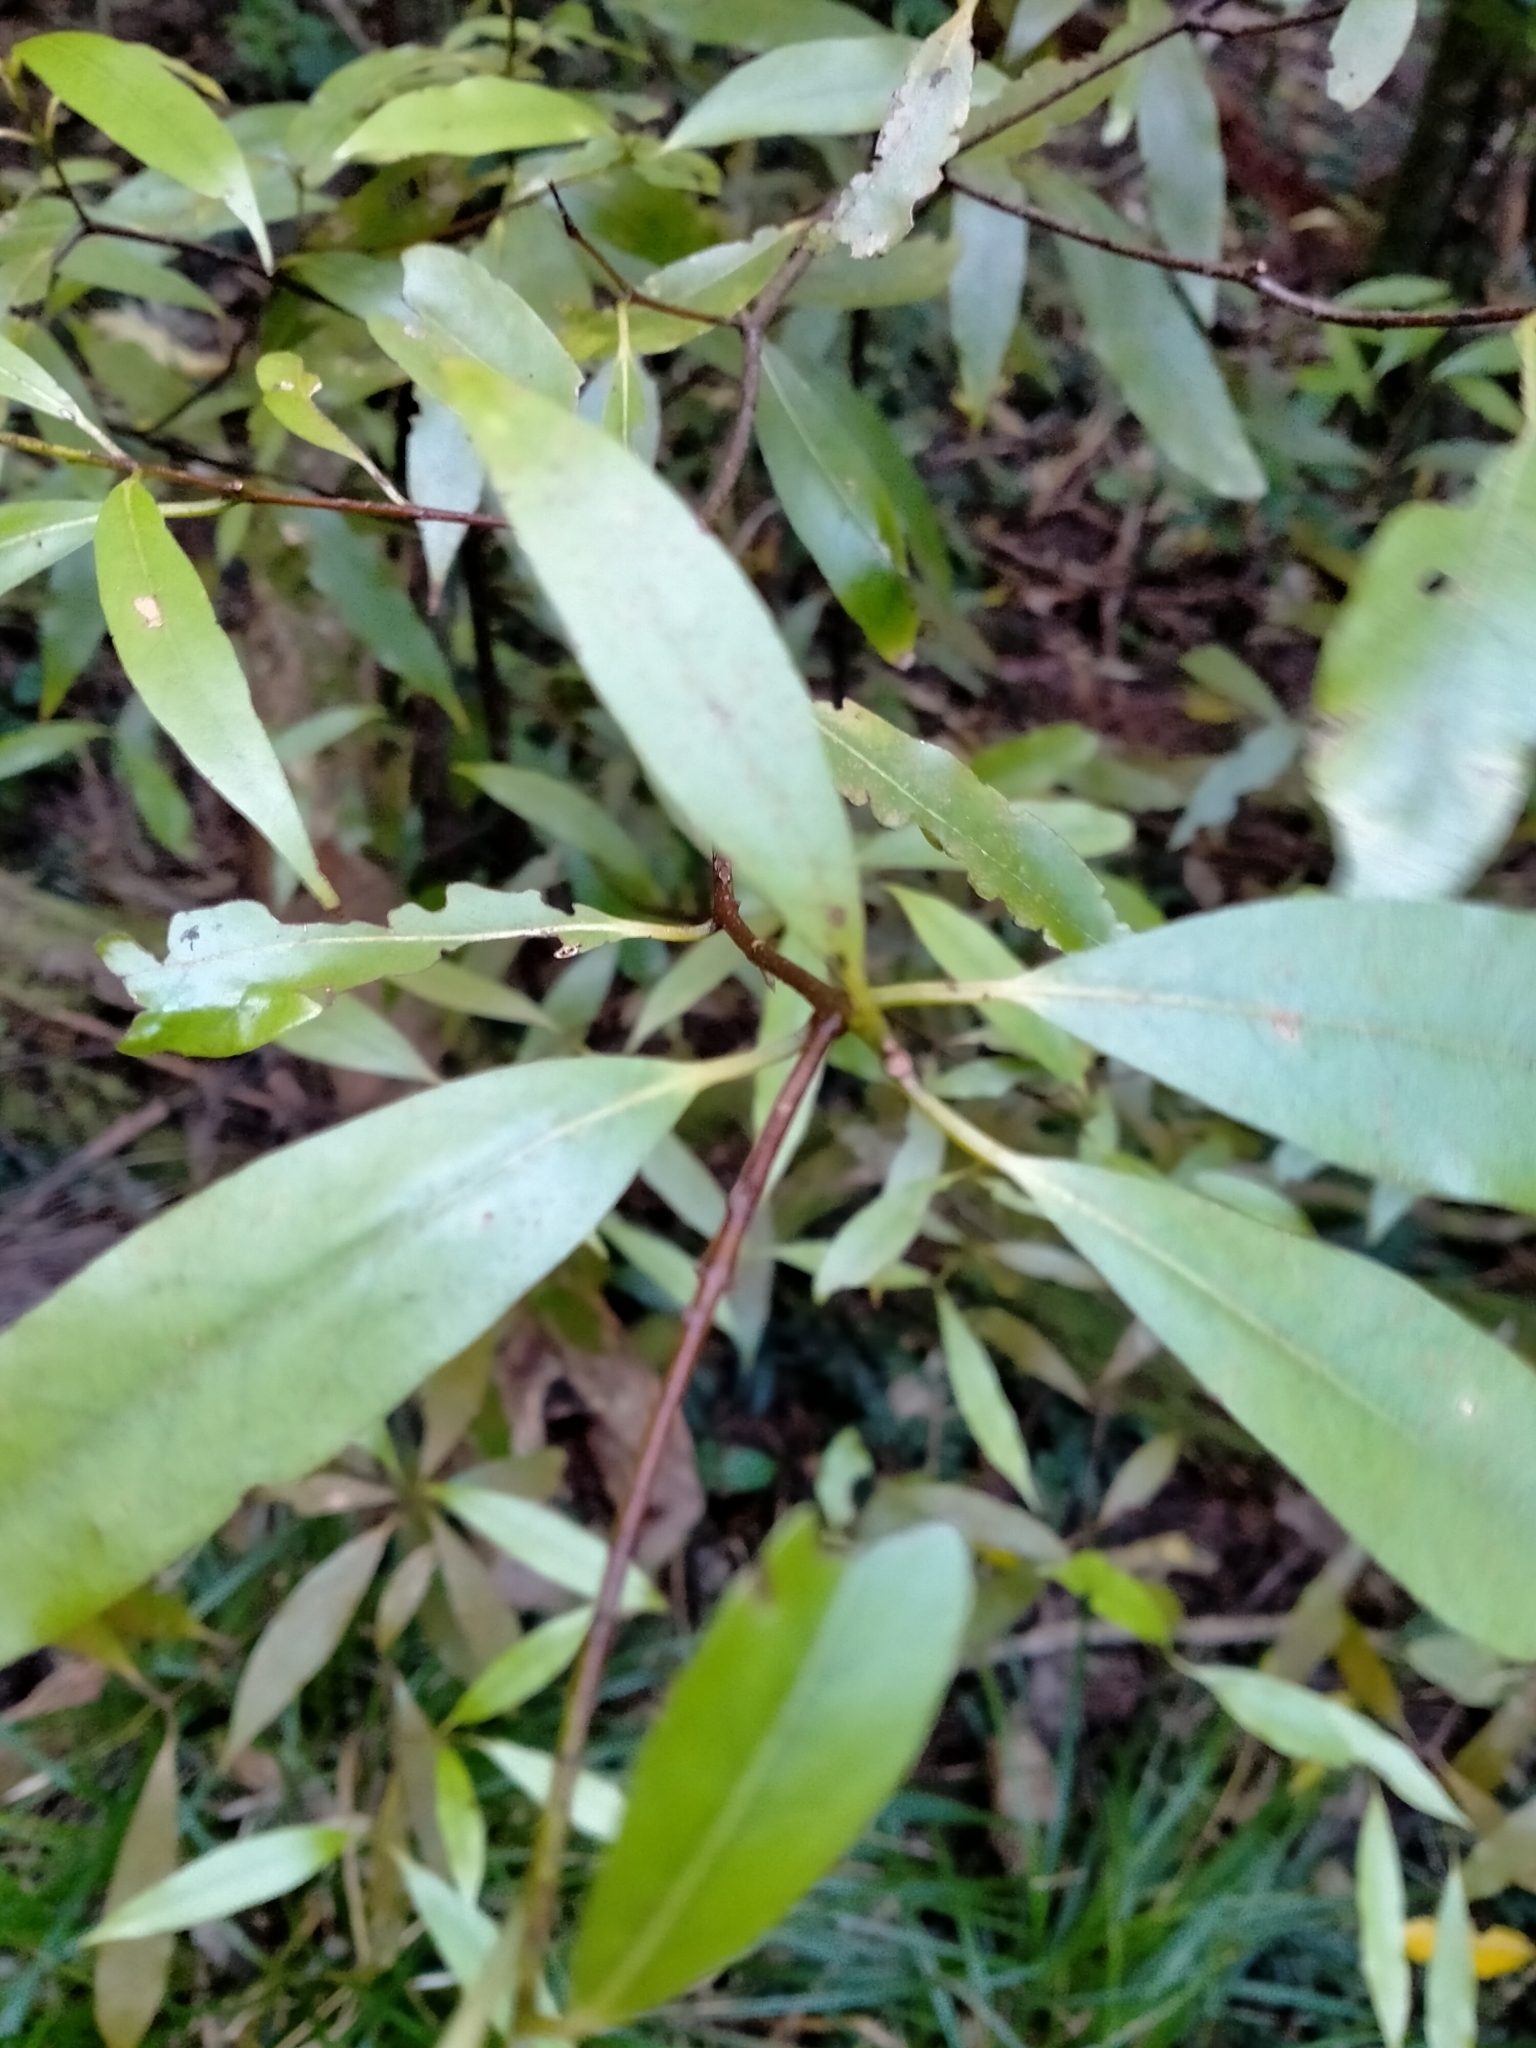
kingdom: Plantae
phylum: Tracheophyta
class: Magnoliopsida
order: Laurales
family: Lauraceae
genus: Beilschmiedia
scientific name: Beilschmiedia tawa
